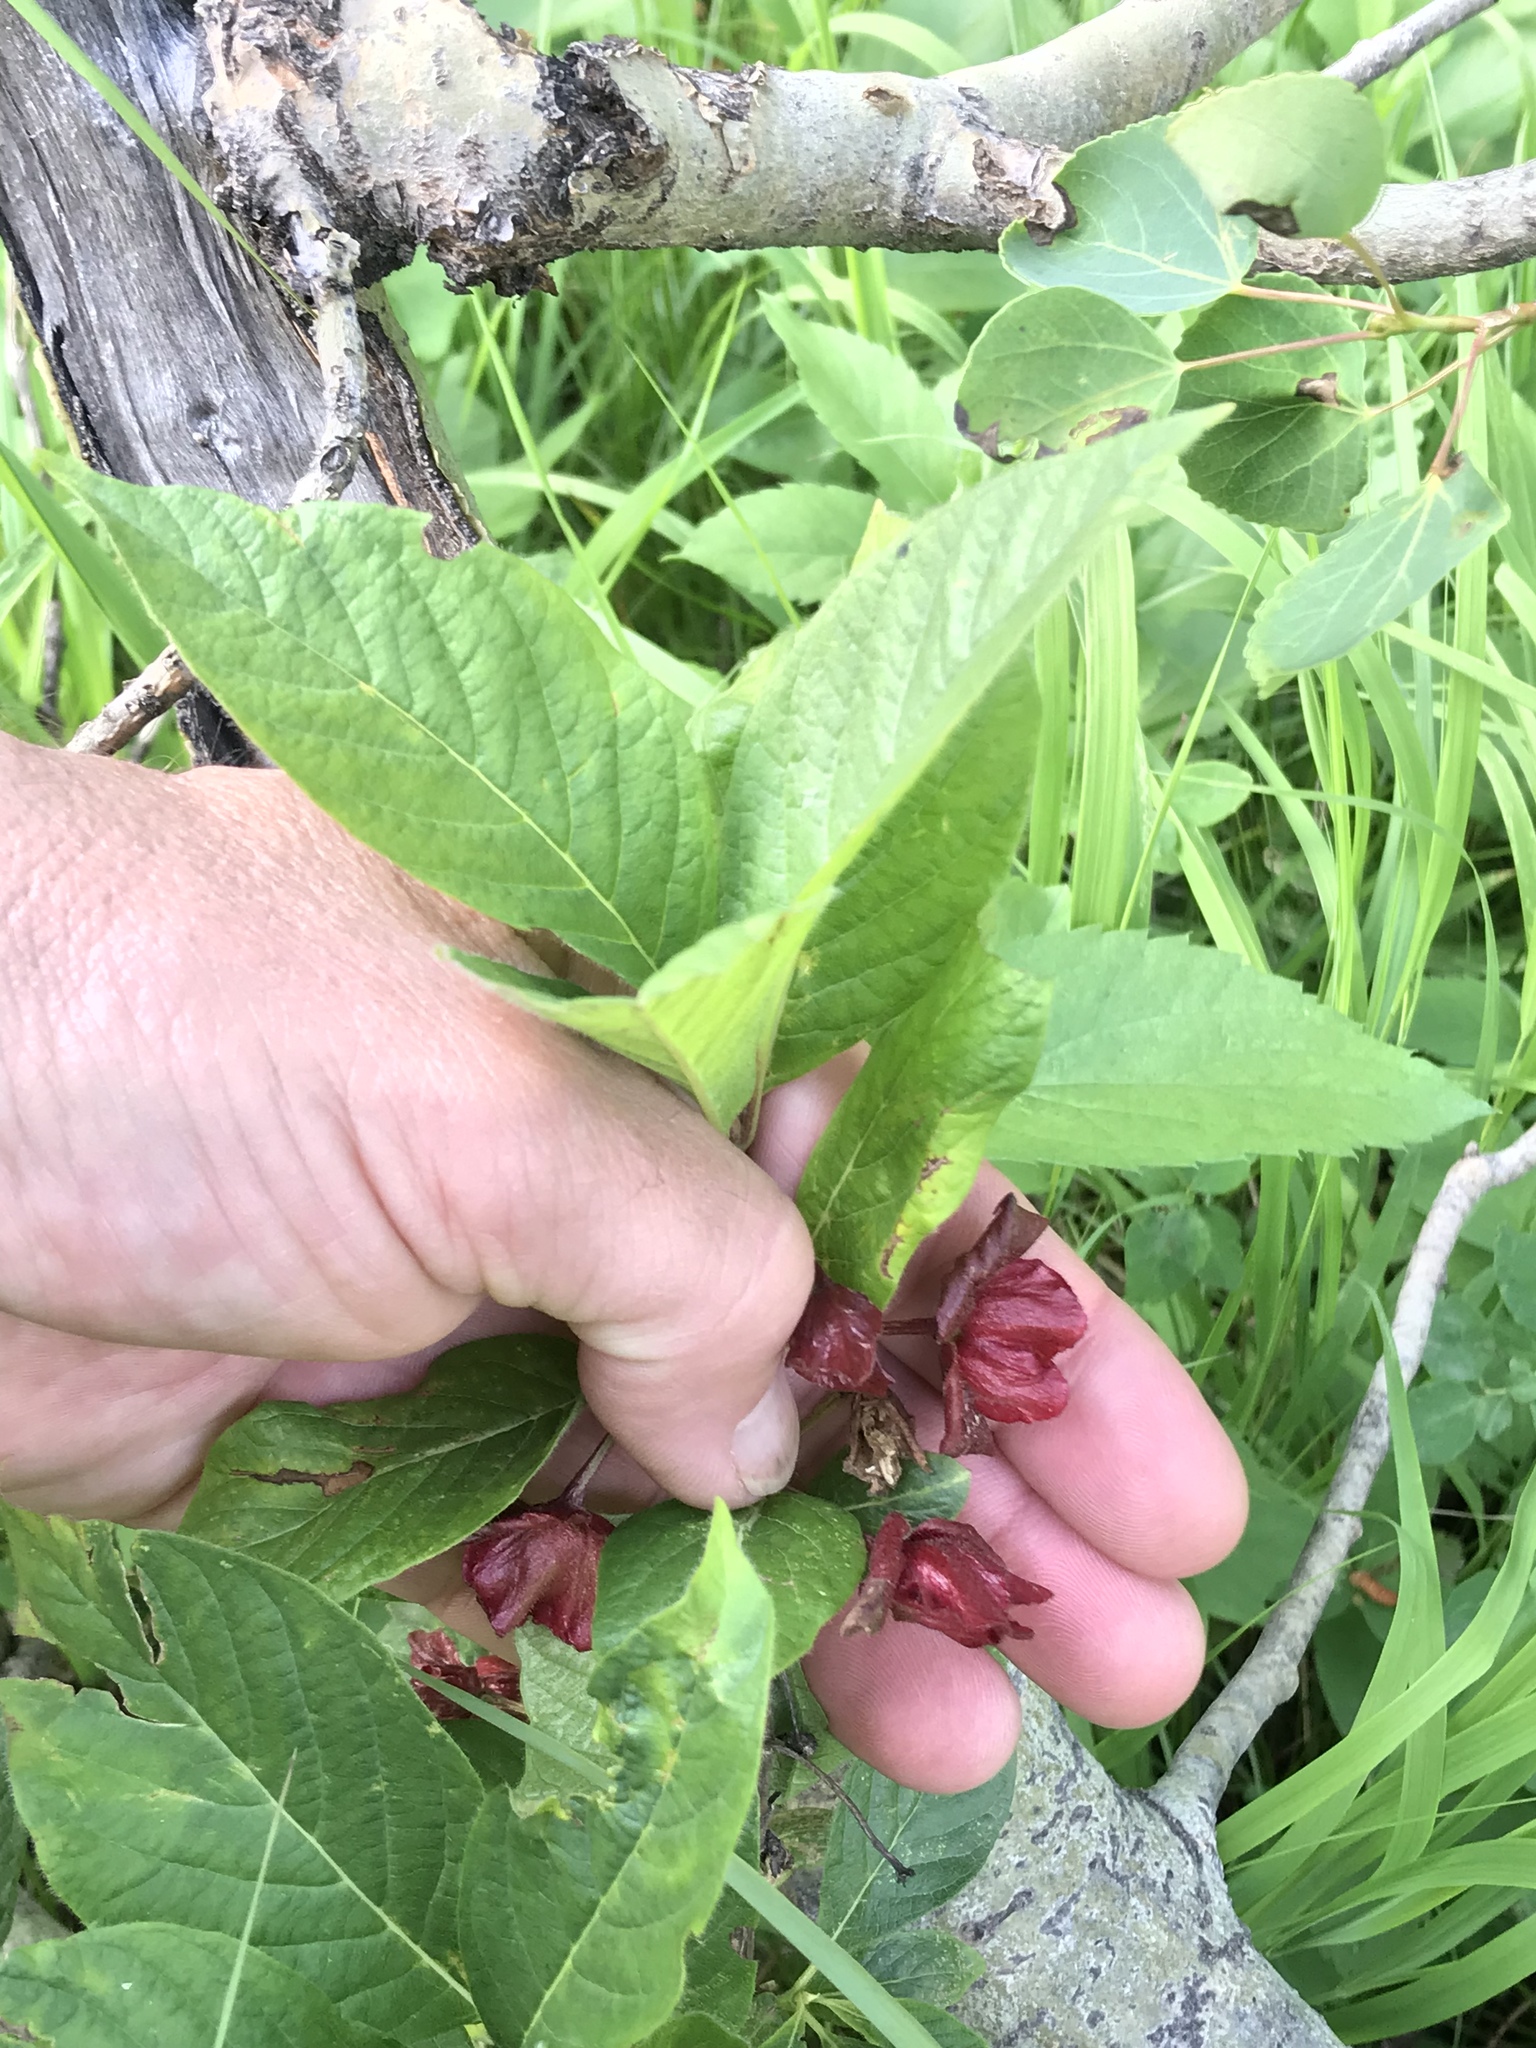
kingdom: Plantae
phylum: Tracheophyta
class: Magnoliopsida
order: Dipsacales
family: Caprifoliaceae
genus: Lonicera
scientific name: Lonicera involucrata
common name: Californian honeysuckle
